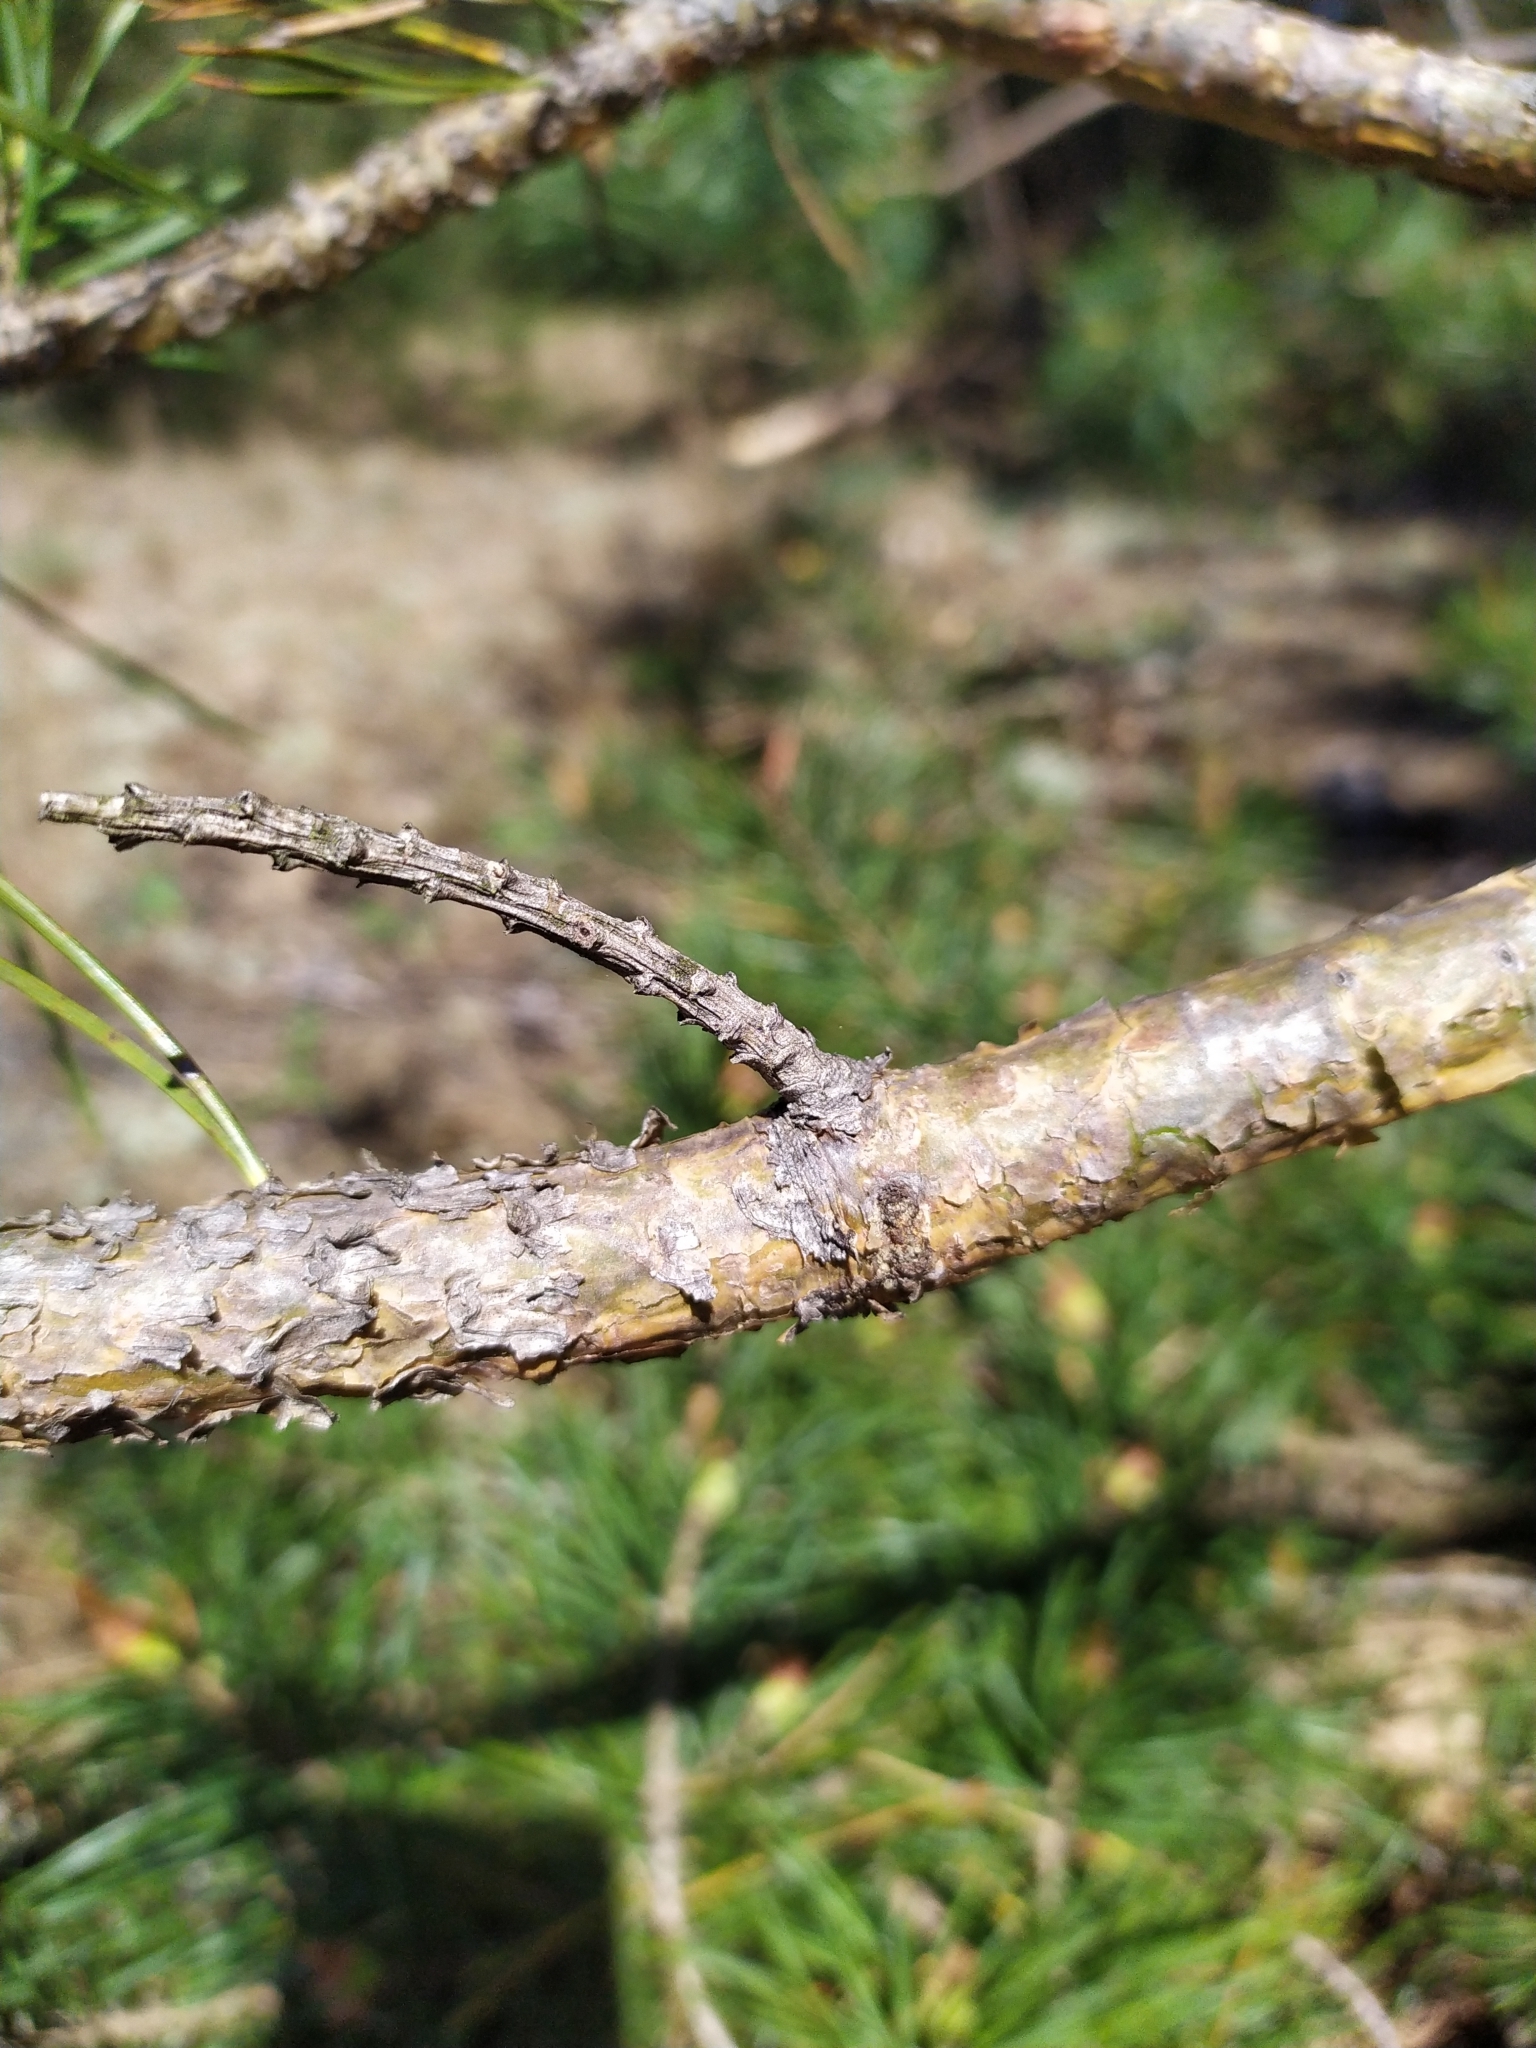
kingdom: Plantae
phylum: Tracheophyta
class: Pinopsida
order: Pinales
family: Pinaceae
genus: Pinus
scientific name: Pinus sylvestris
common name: Scots pine
